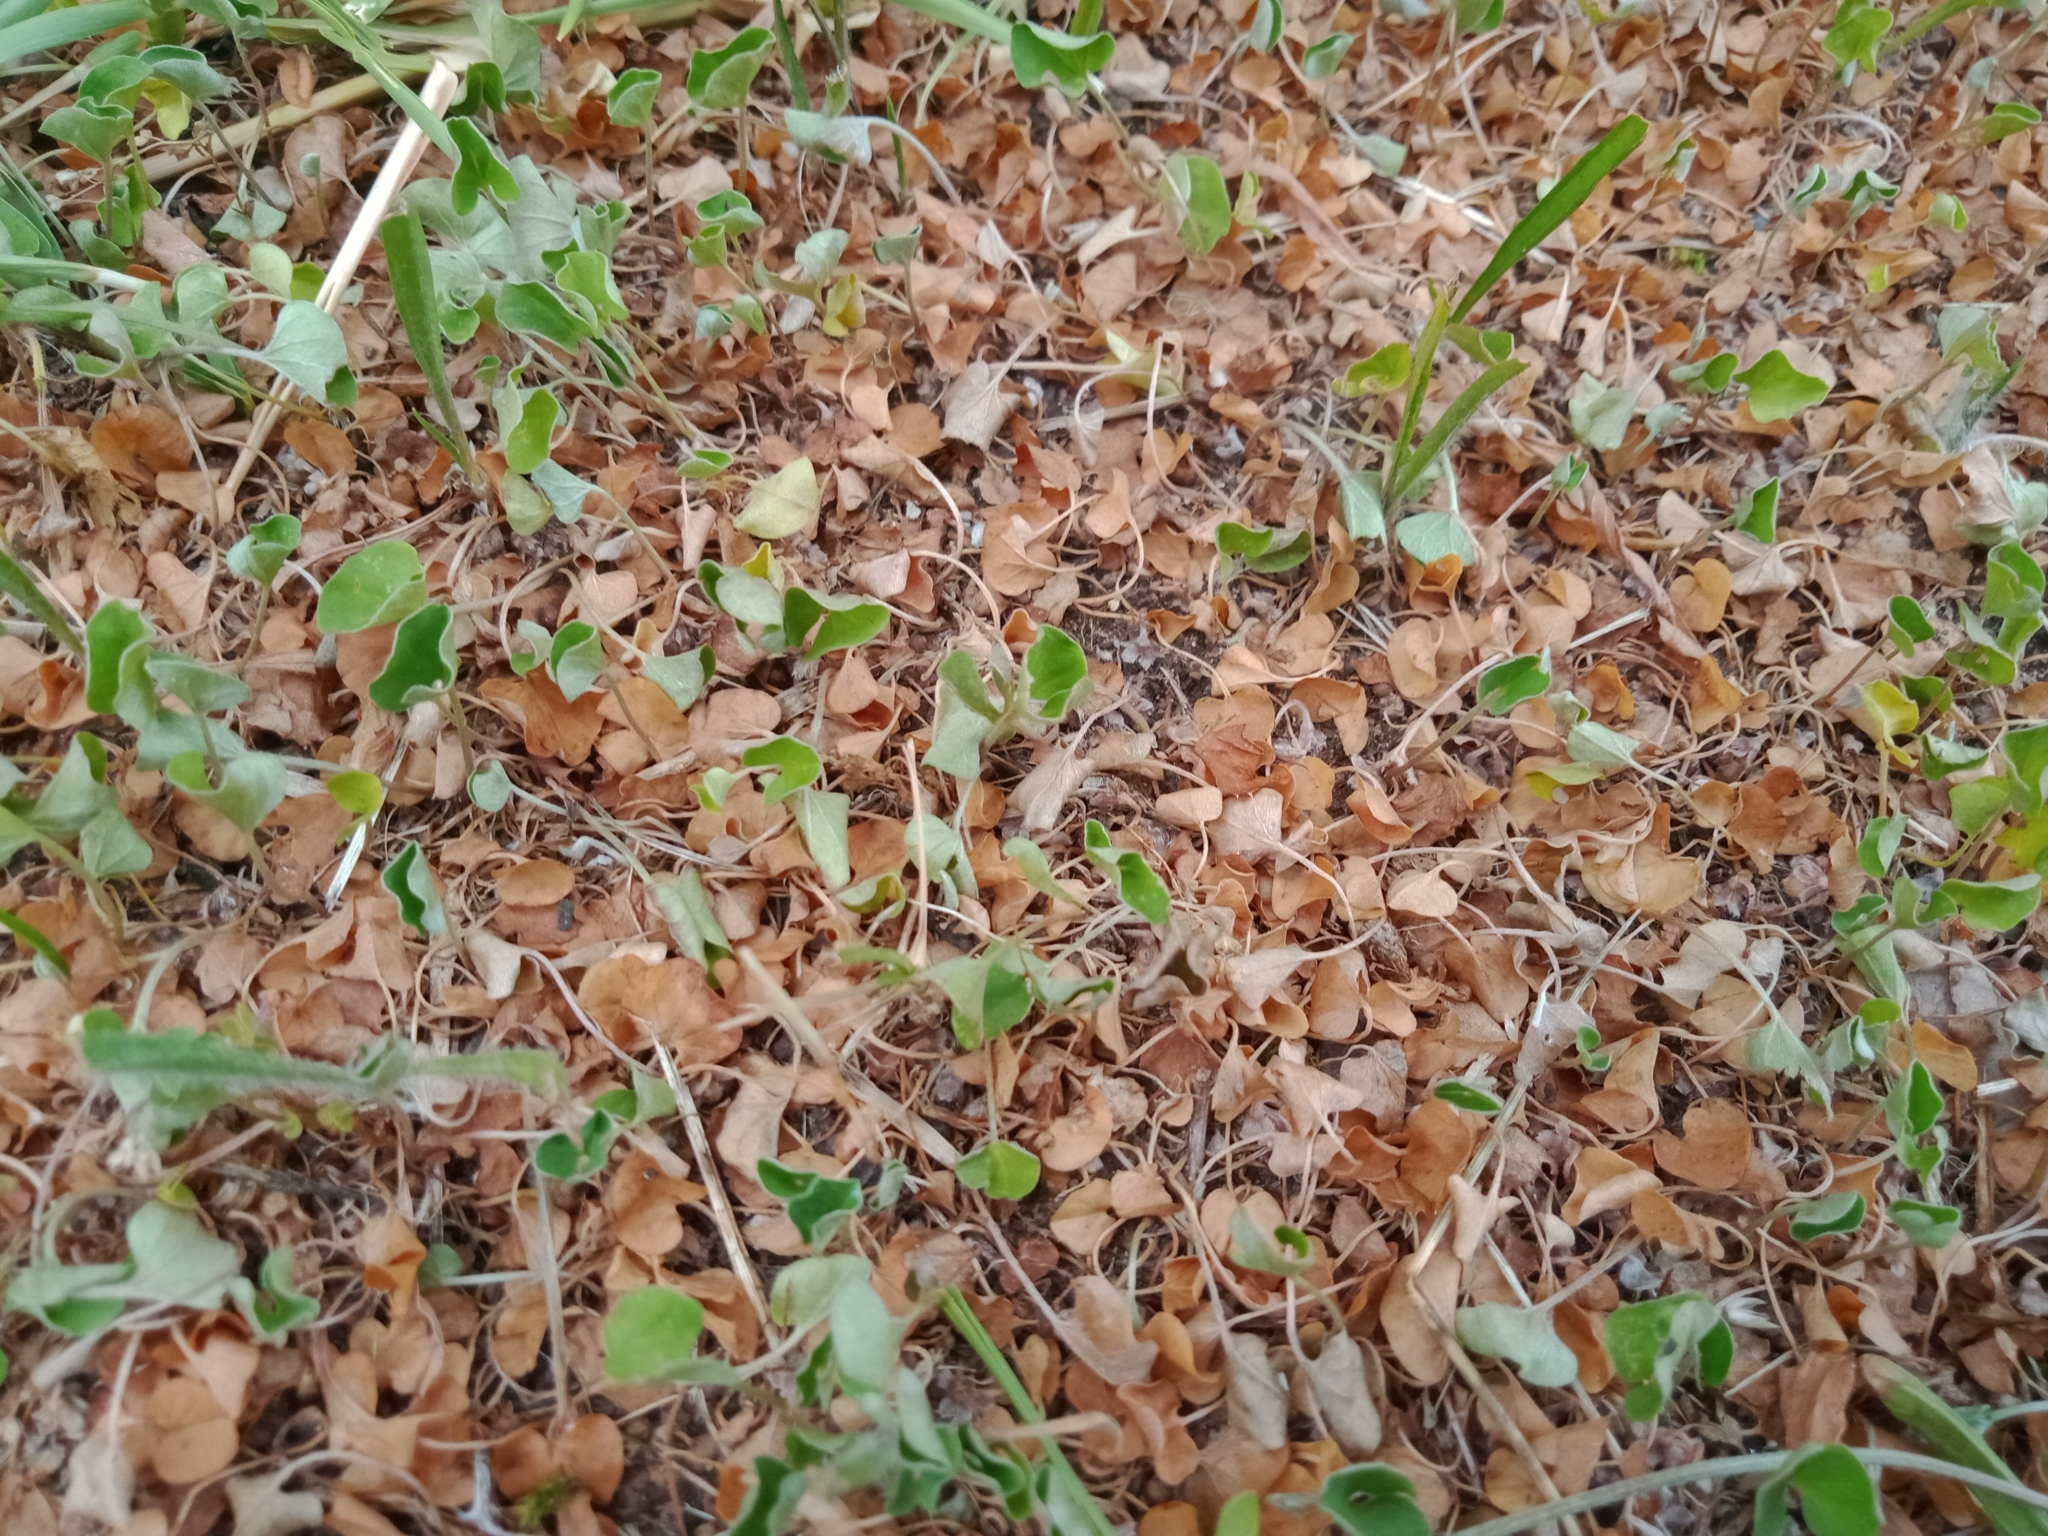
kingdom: Plantae
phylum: Tracheophyta
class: Magnoliopsida
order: Solanales
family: Convolvulaceae
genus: Dichondra
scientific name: Dichondra repens
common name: Kidneyweed
